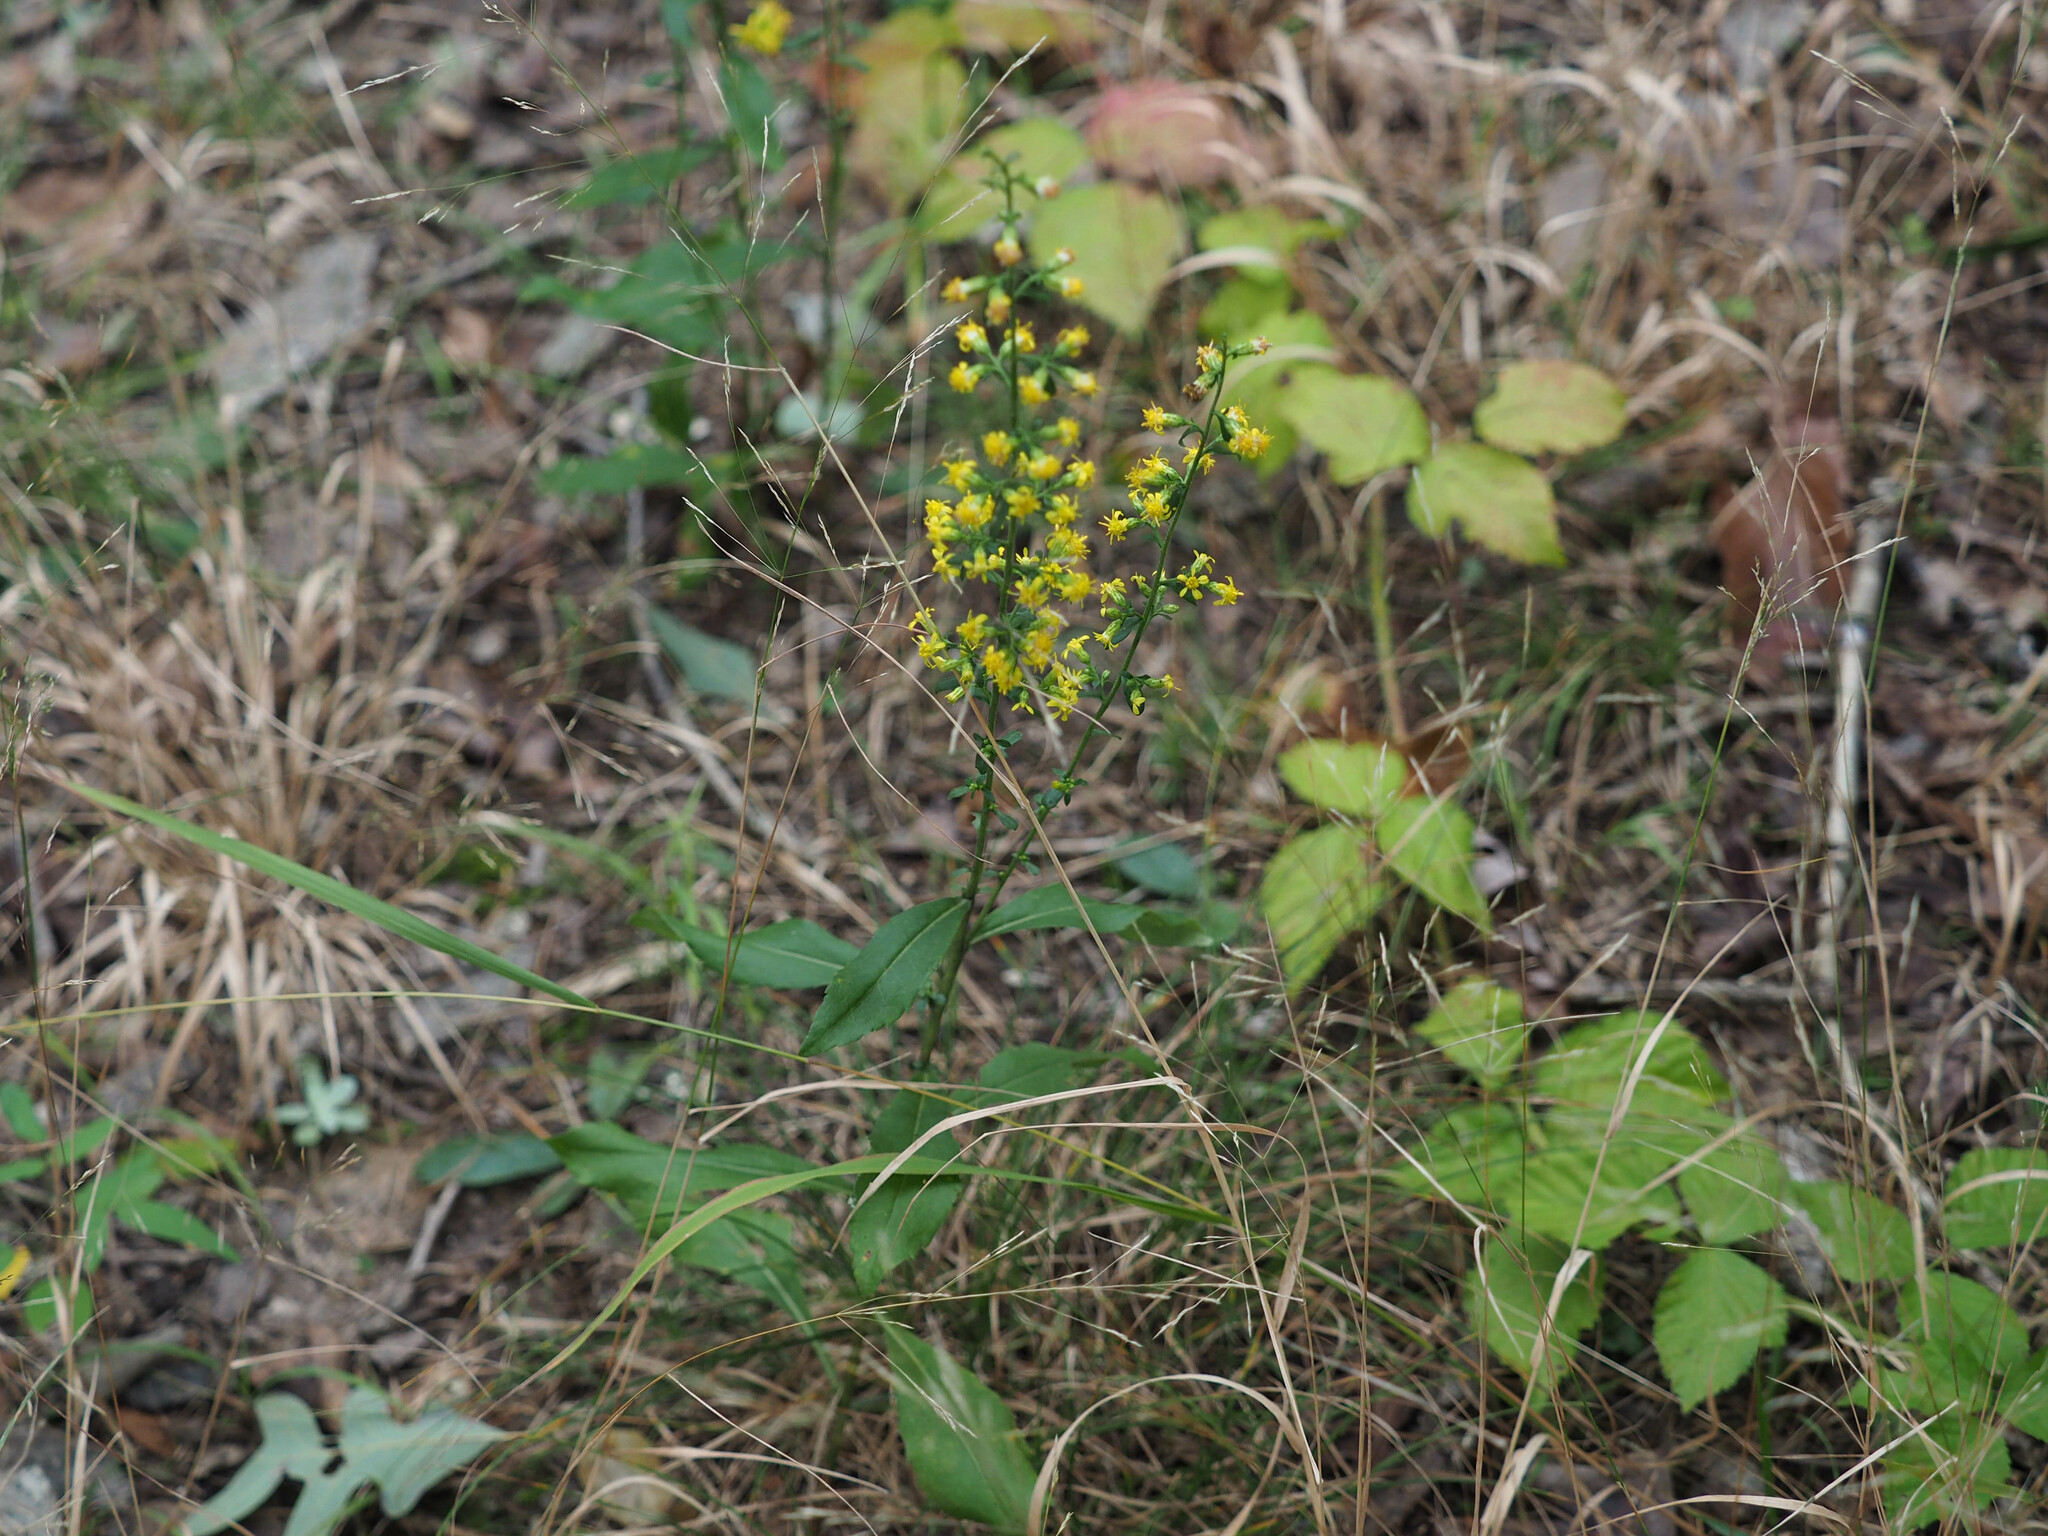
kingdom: Plantae
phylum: Tracheophyta
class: Magnoliopsida
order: Asterales
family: Asteraceae
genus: Solidago
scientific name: Solidago erecta
